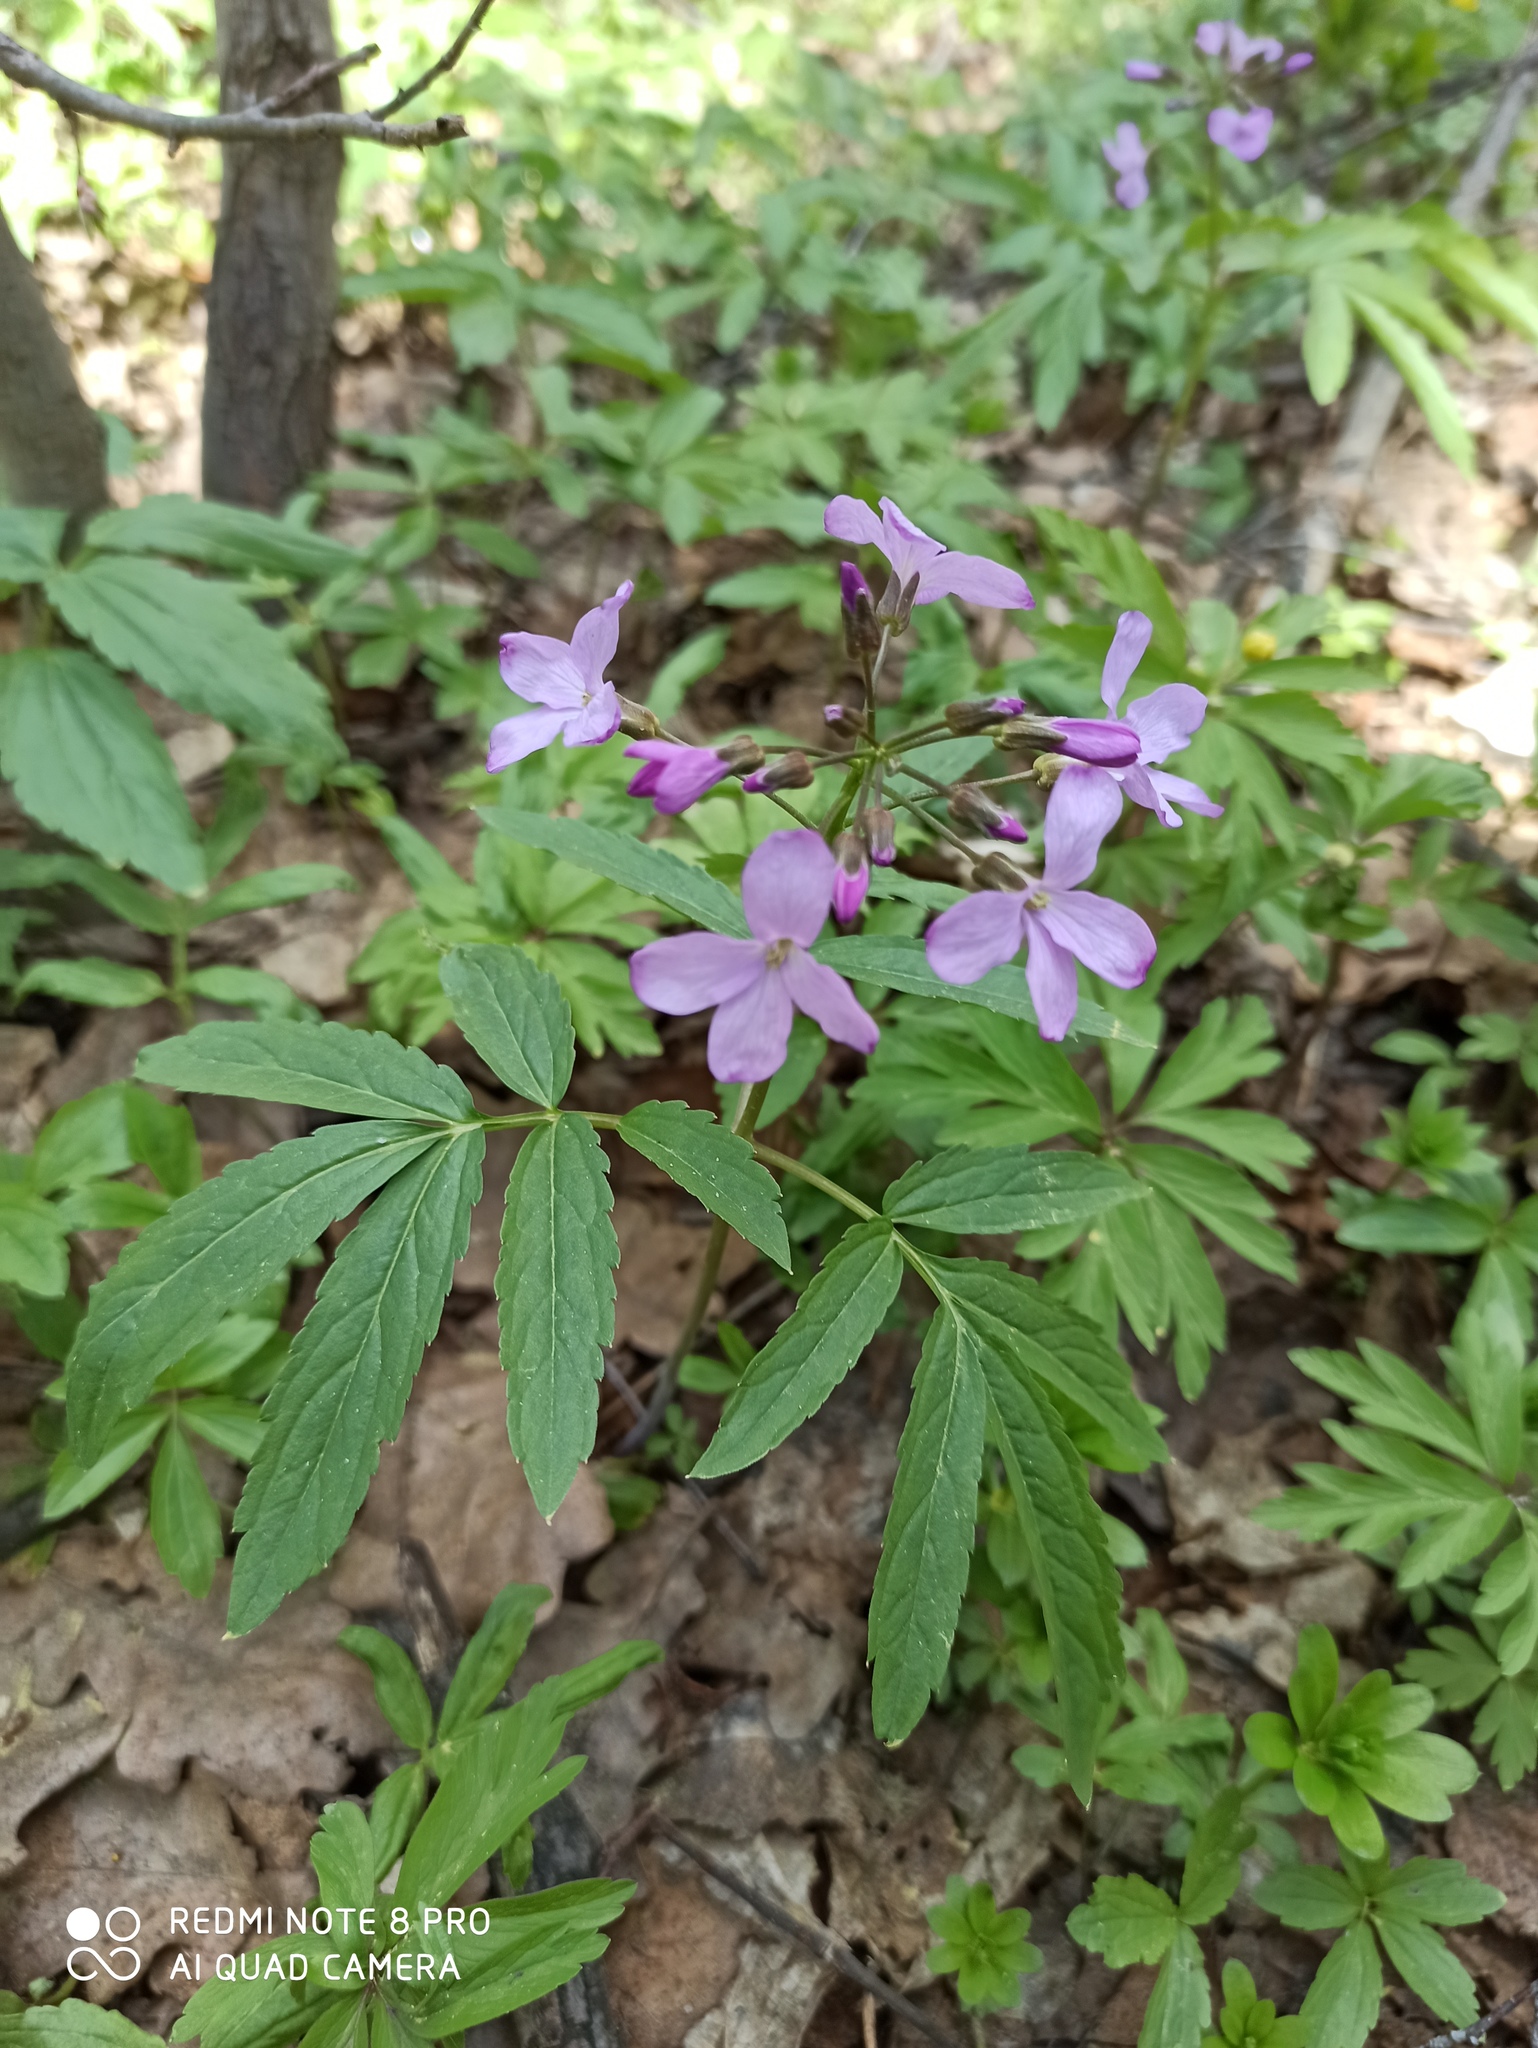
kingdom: Plantae
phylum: Tracheophyta
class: Magnoliopsida
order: Brassicales
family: Brassicaceae
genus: Cardamine
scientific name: Cardamine quinquefolia
